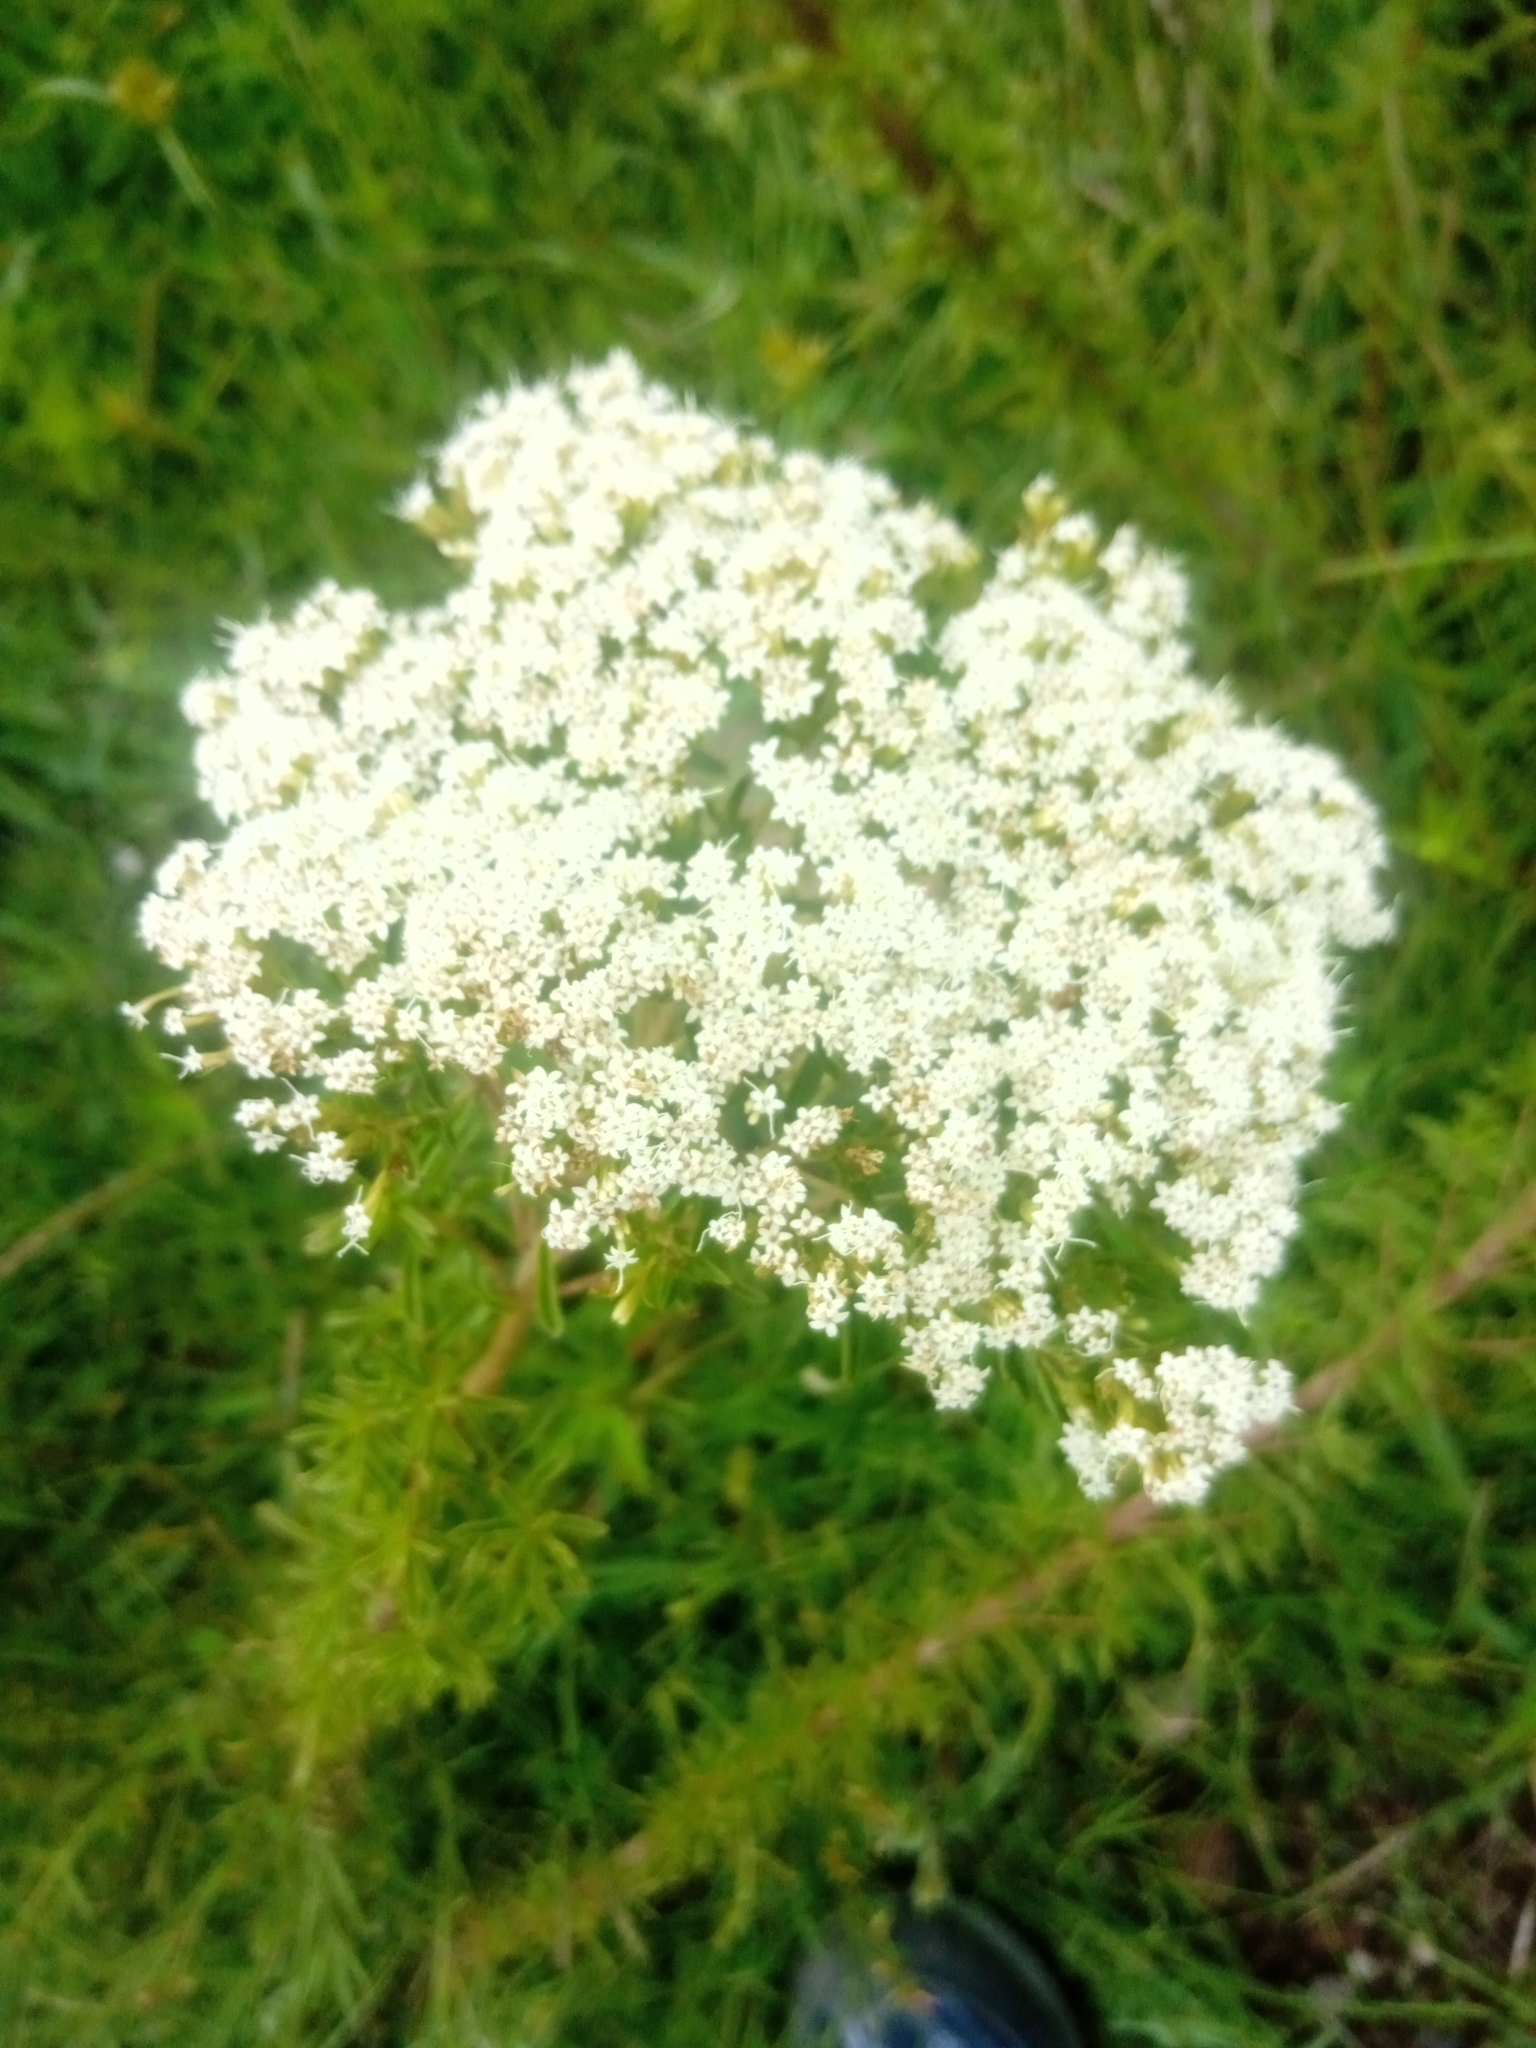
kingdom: Plantae
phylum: Tracheophyta
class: Magnoliopsida
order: Asterales
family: Asteraceae
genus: Stevia
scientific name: Stevia serrata
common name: Sawtooth candyleaf
